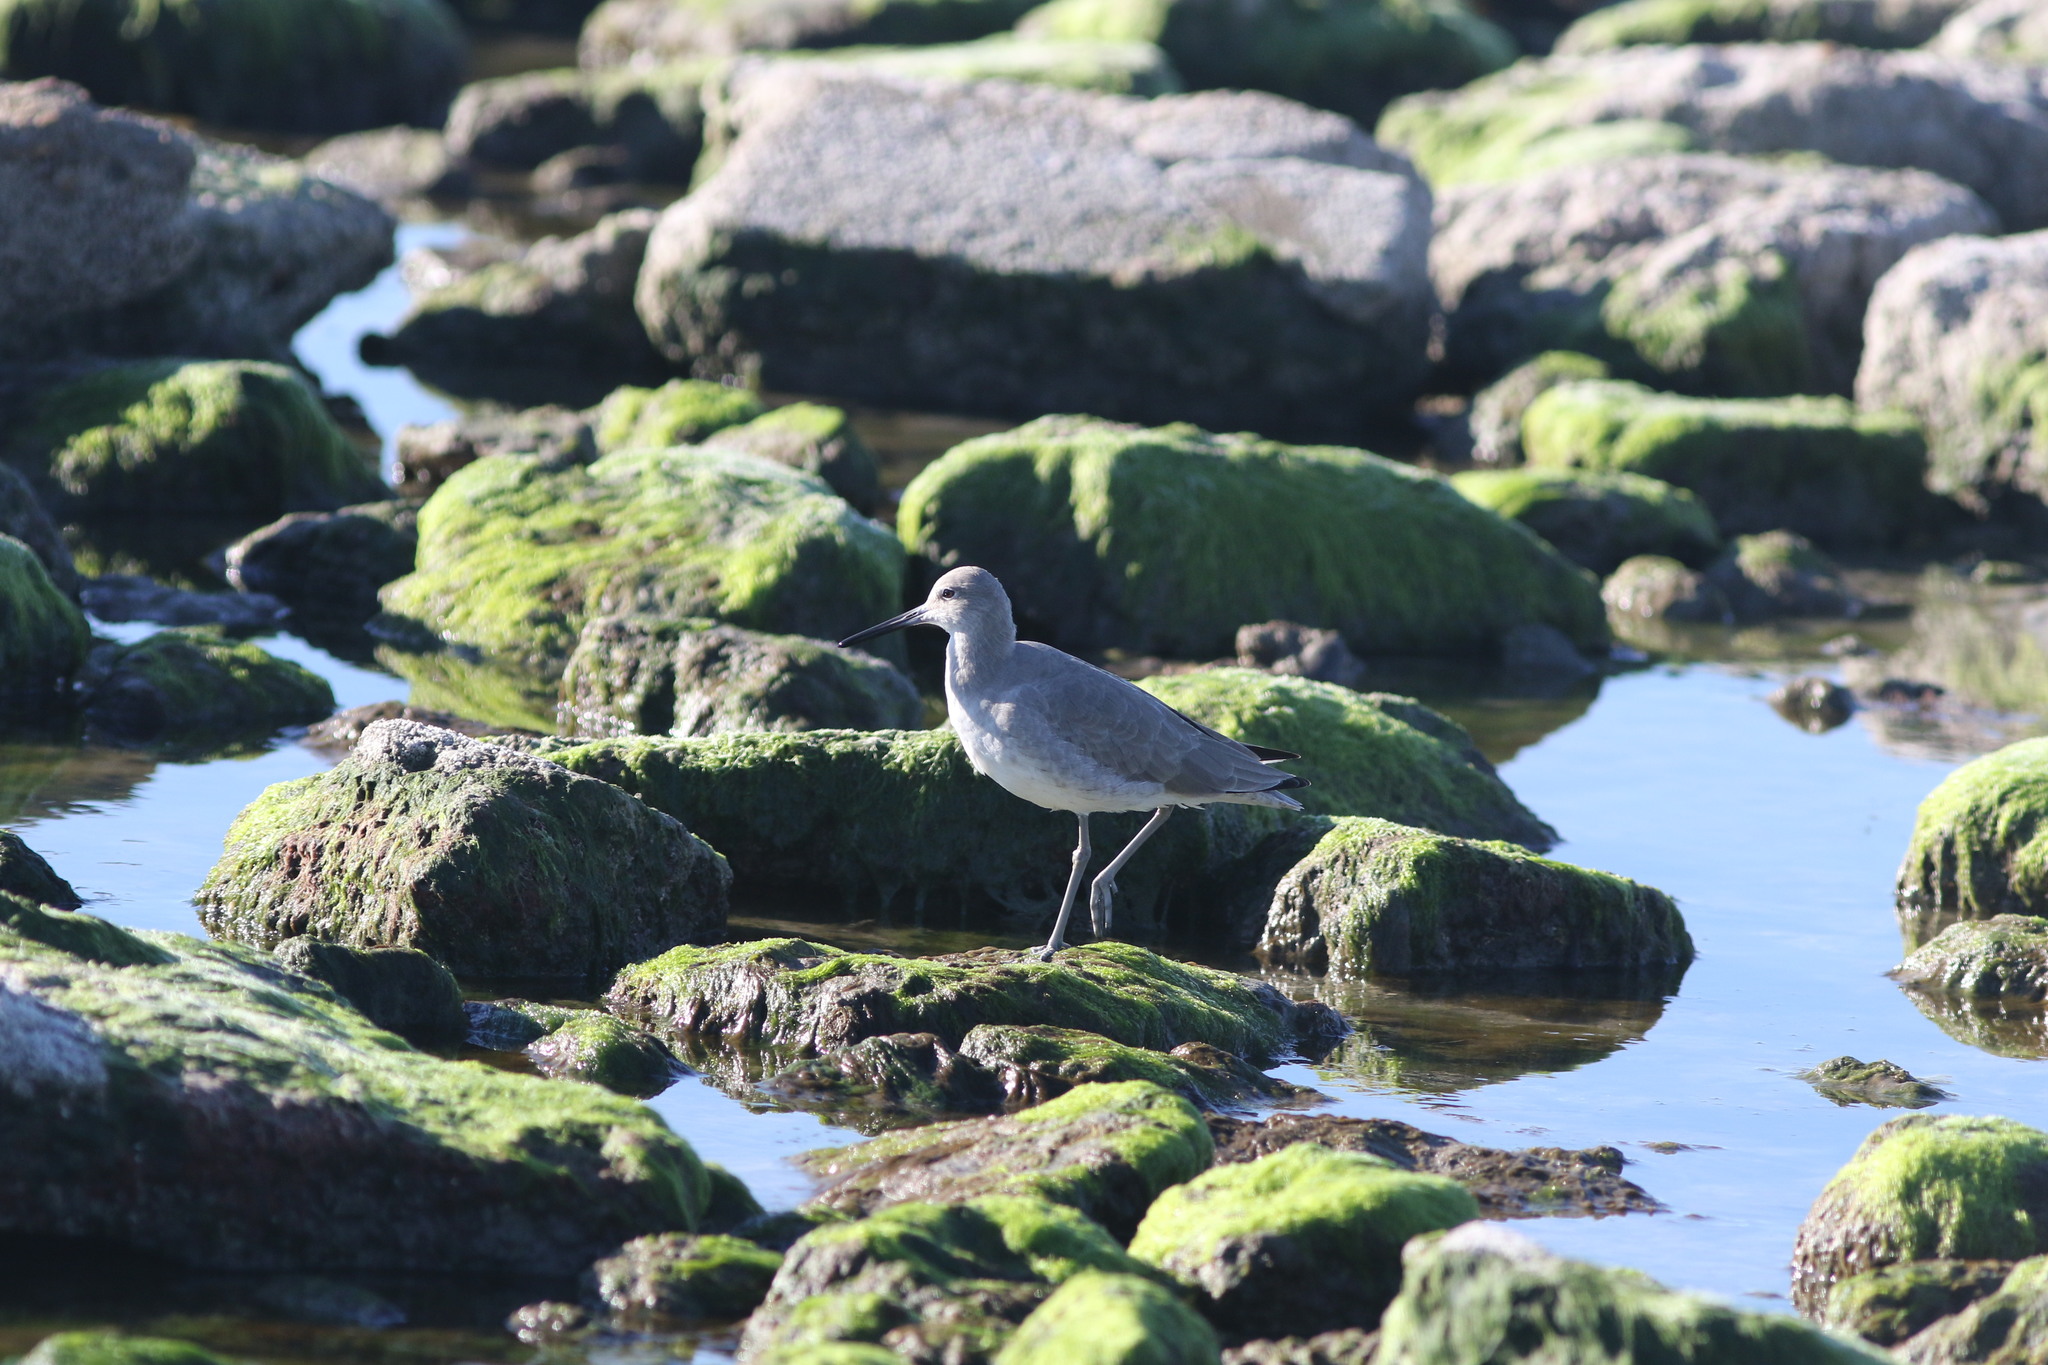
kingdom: Animalia
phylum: Chordata
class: Aves
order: Charadriiformes
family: Scolopacidae
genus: Tringa
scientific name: Tringa semipalmata
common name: Willet
